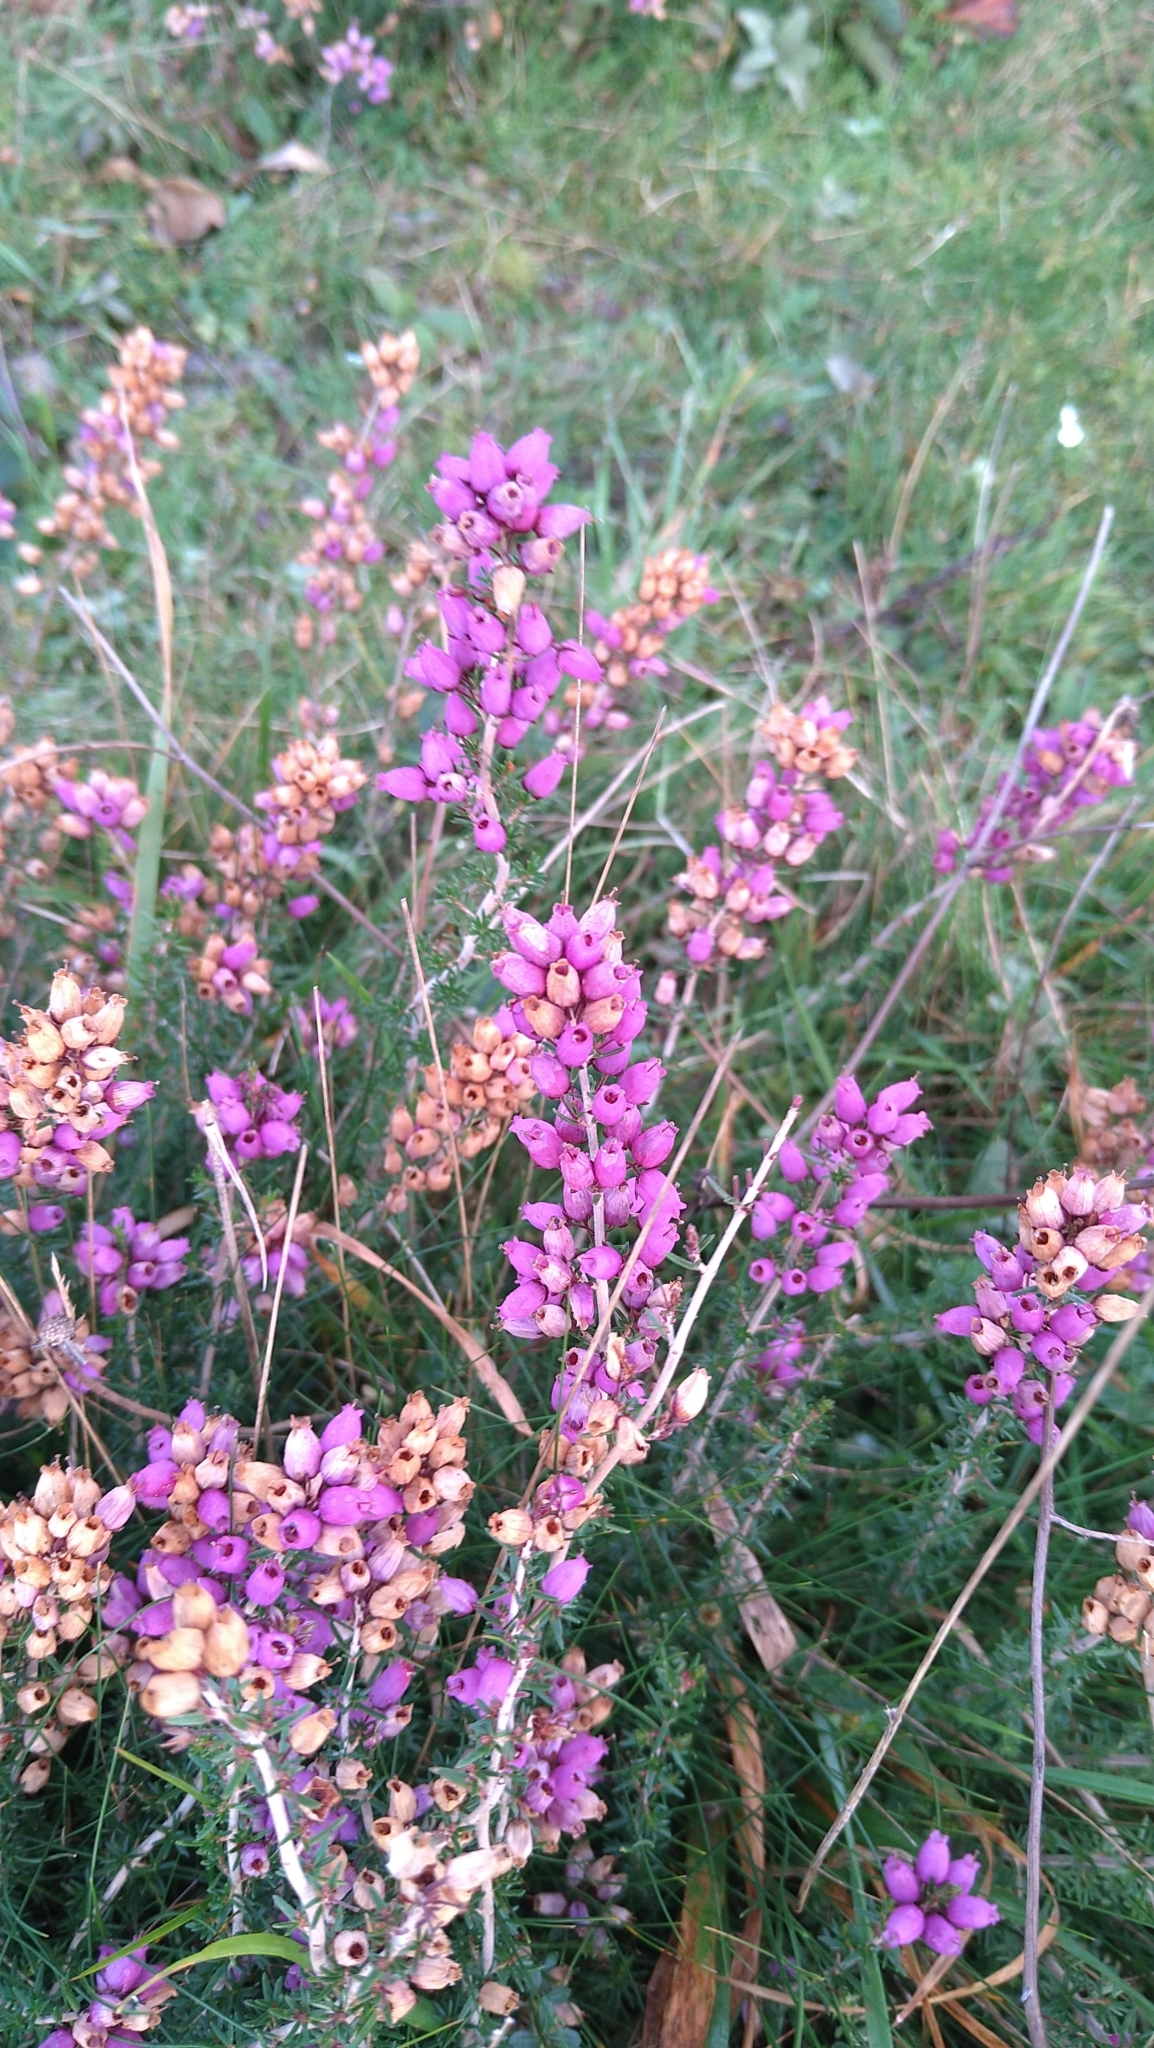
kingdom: Plantae
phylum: Tracheophyta
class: Magnoliopsida
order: Ericales
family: Ericaceae
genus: Erica
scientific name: Erica cinerea
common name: Bell heather
